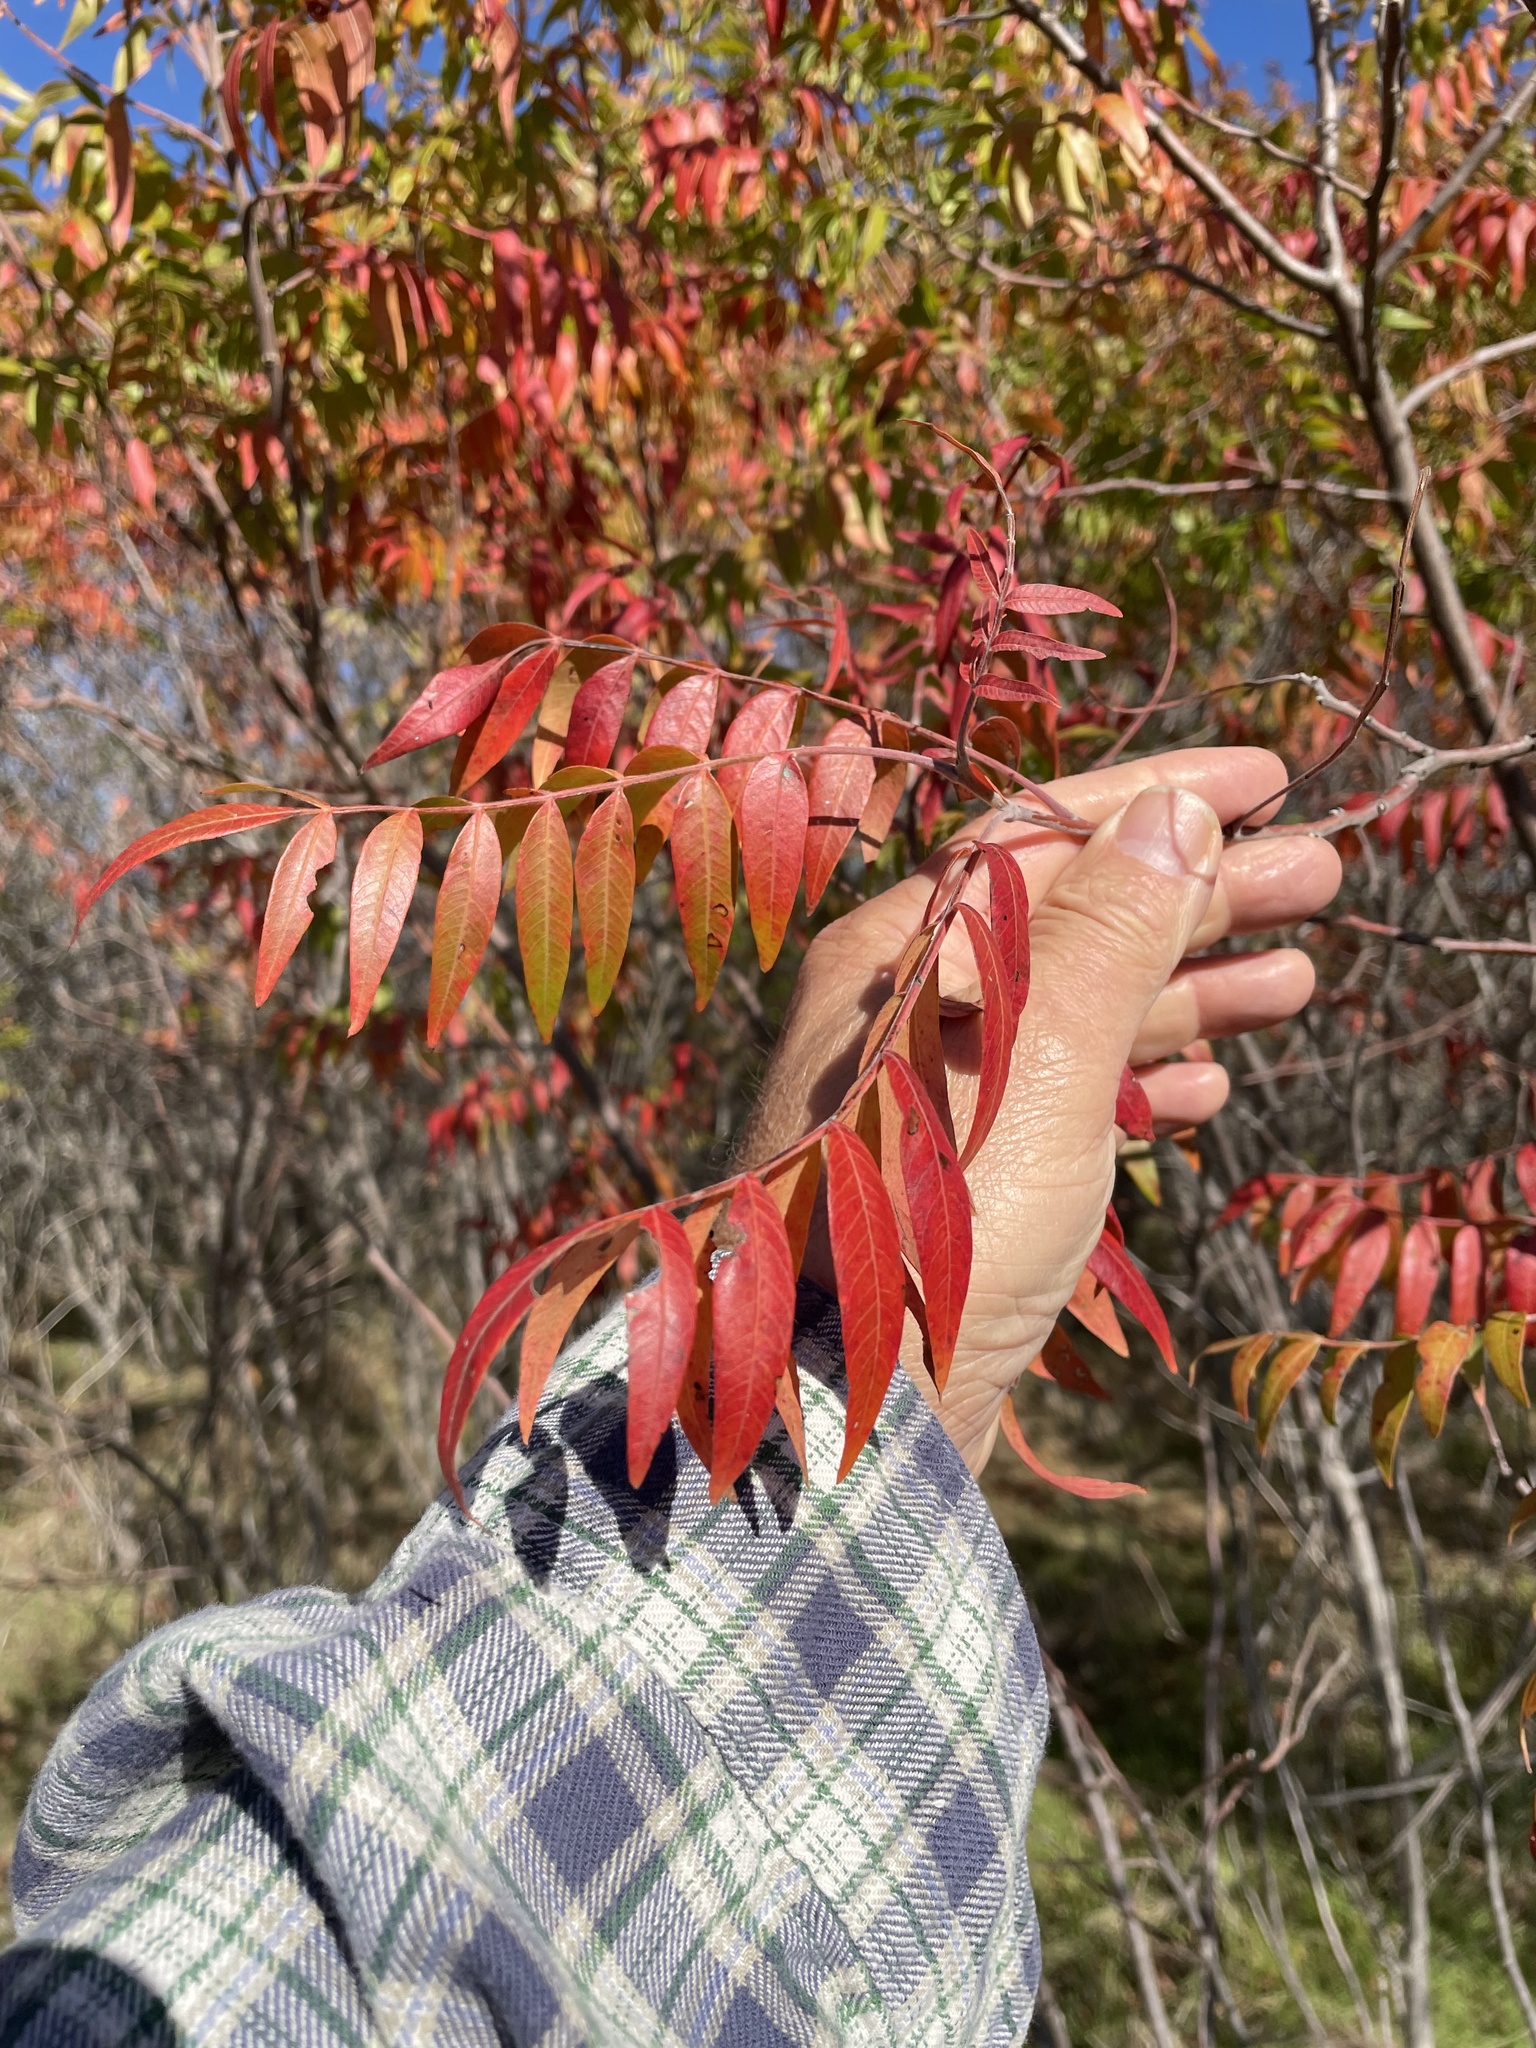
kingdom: Plantae
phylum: Tracheophyta
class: Magnoliopsida
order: Sapindales
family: Anacardiaceae
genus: Rhus
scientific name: Rhus lanceolata
